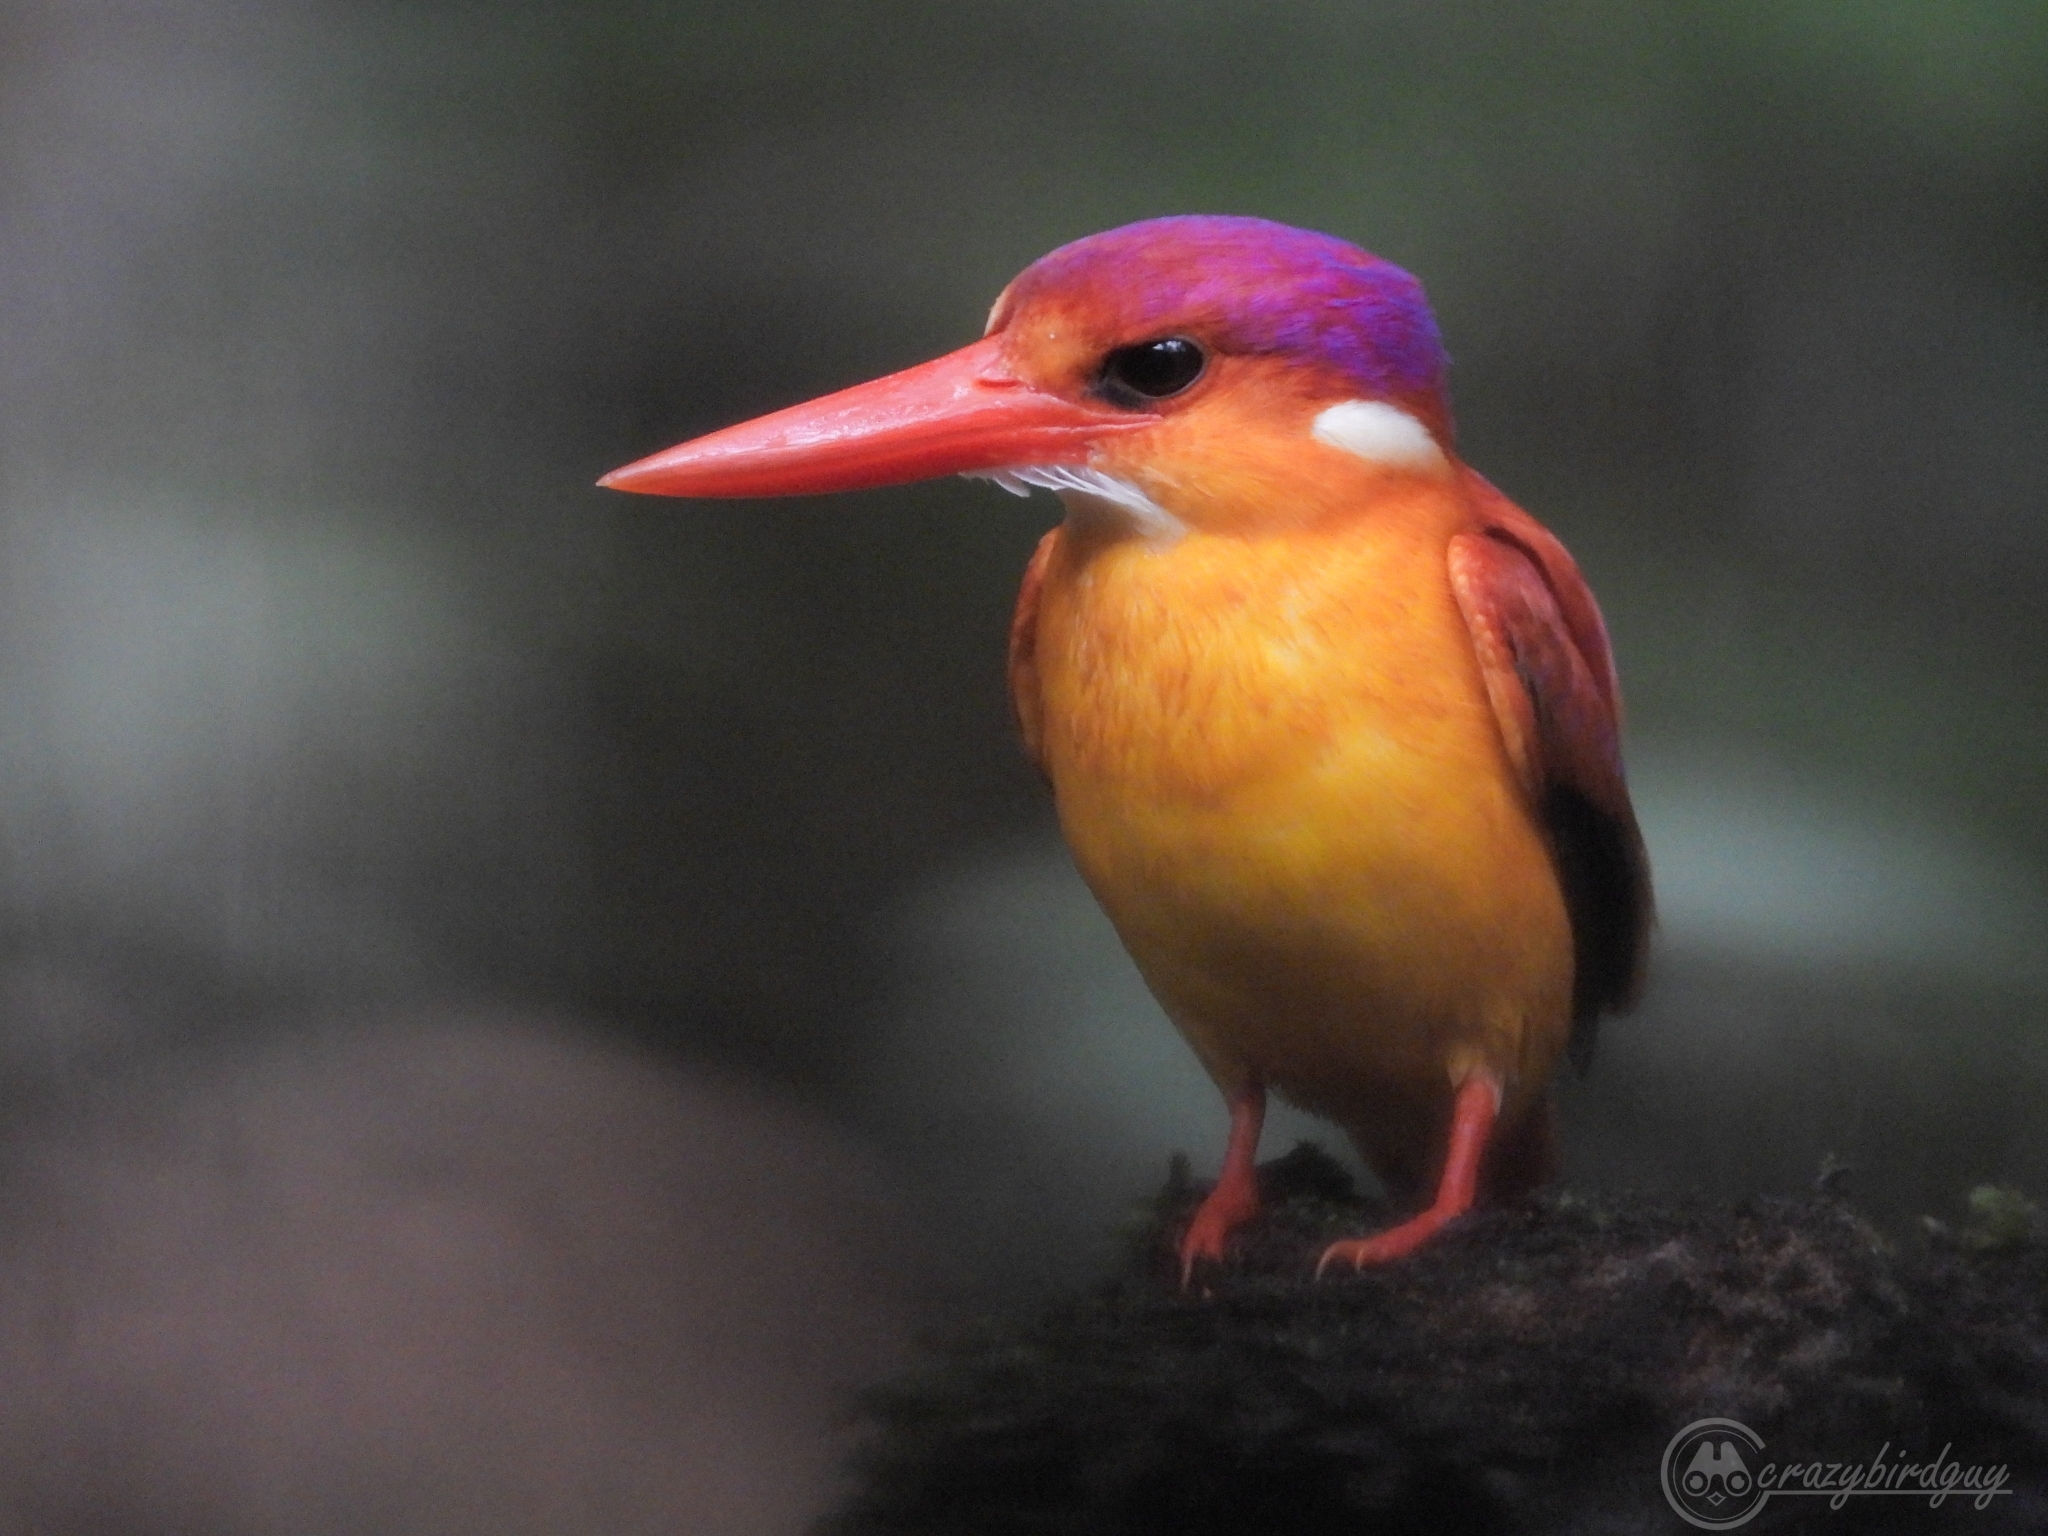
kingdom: Animalia
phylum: Chordata
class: Aves
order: Coraciiformes
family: Alcedinidae
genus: Ceyx
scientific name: Ceyx erithaca
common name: Oriental dwarf kingfisher
